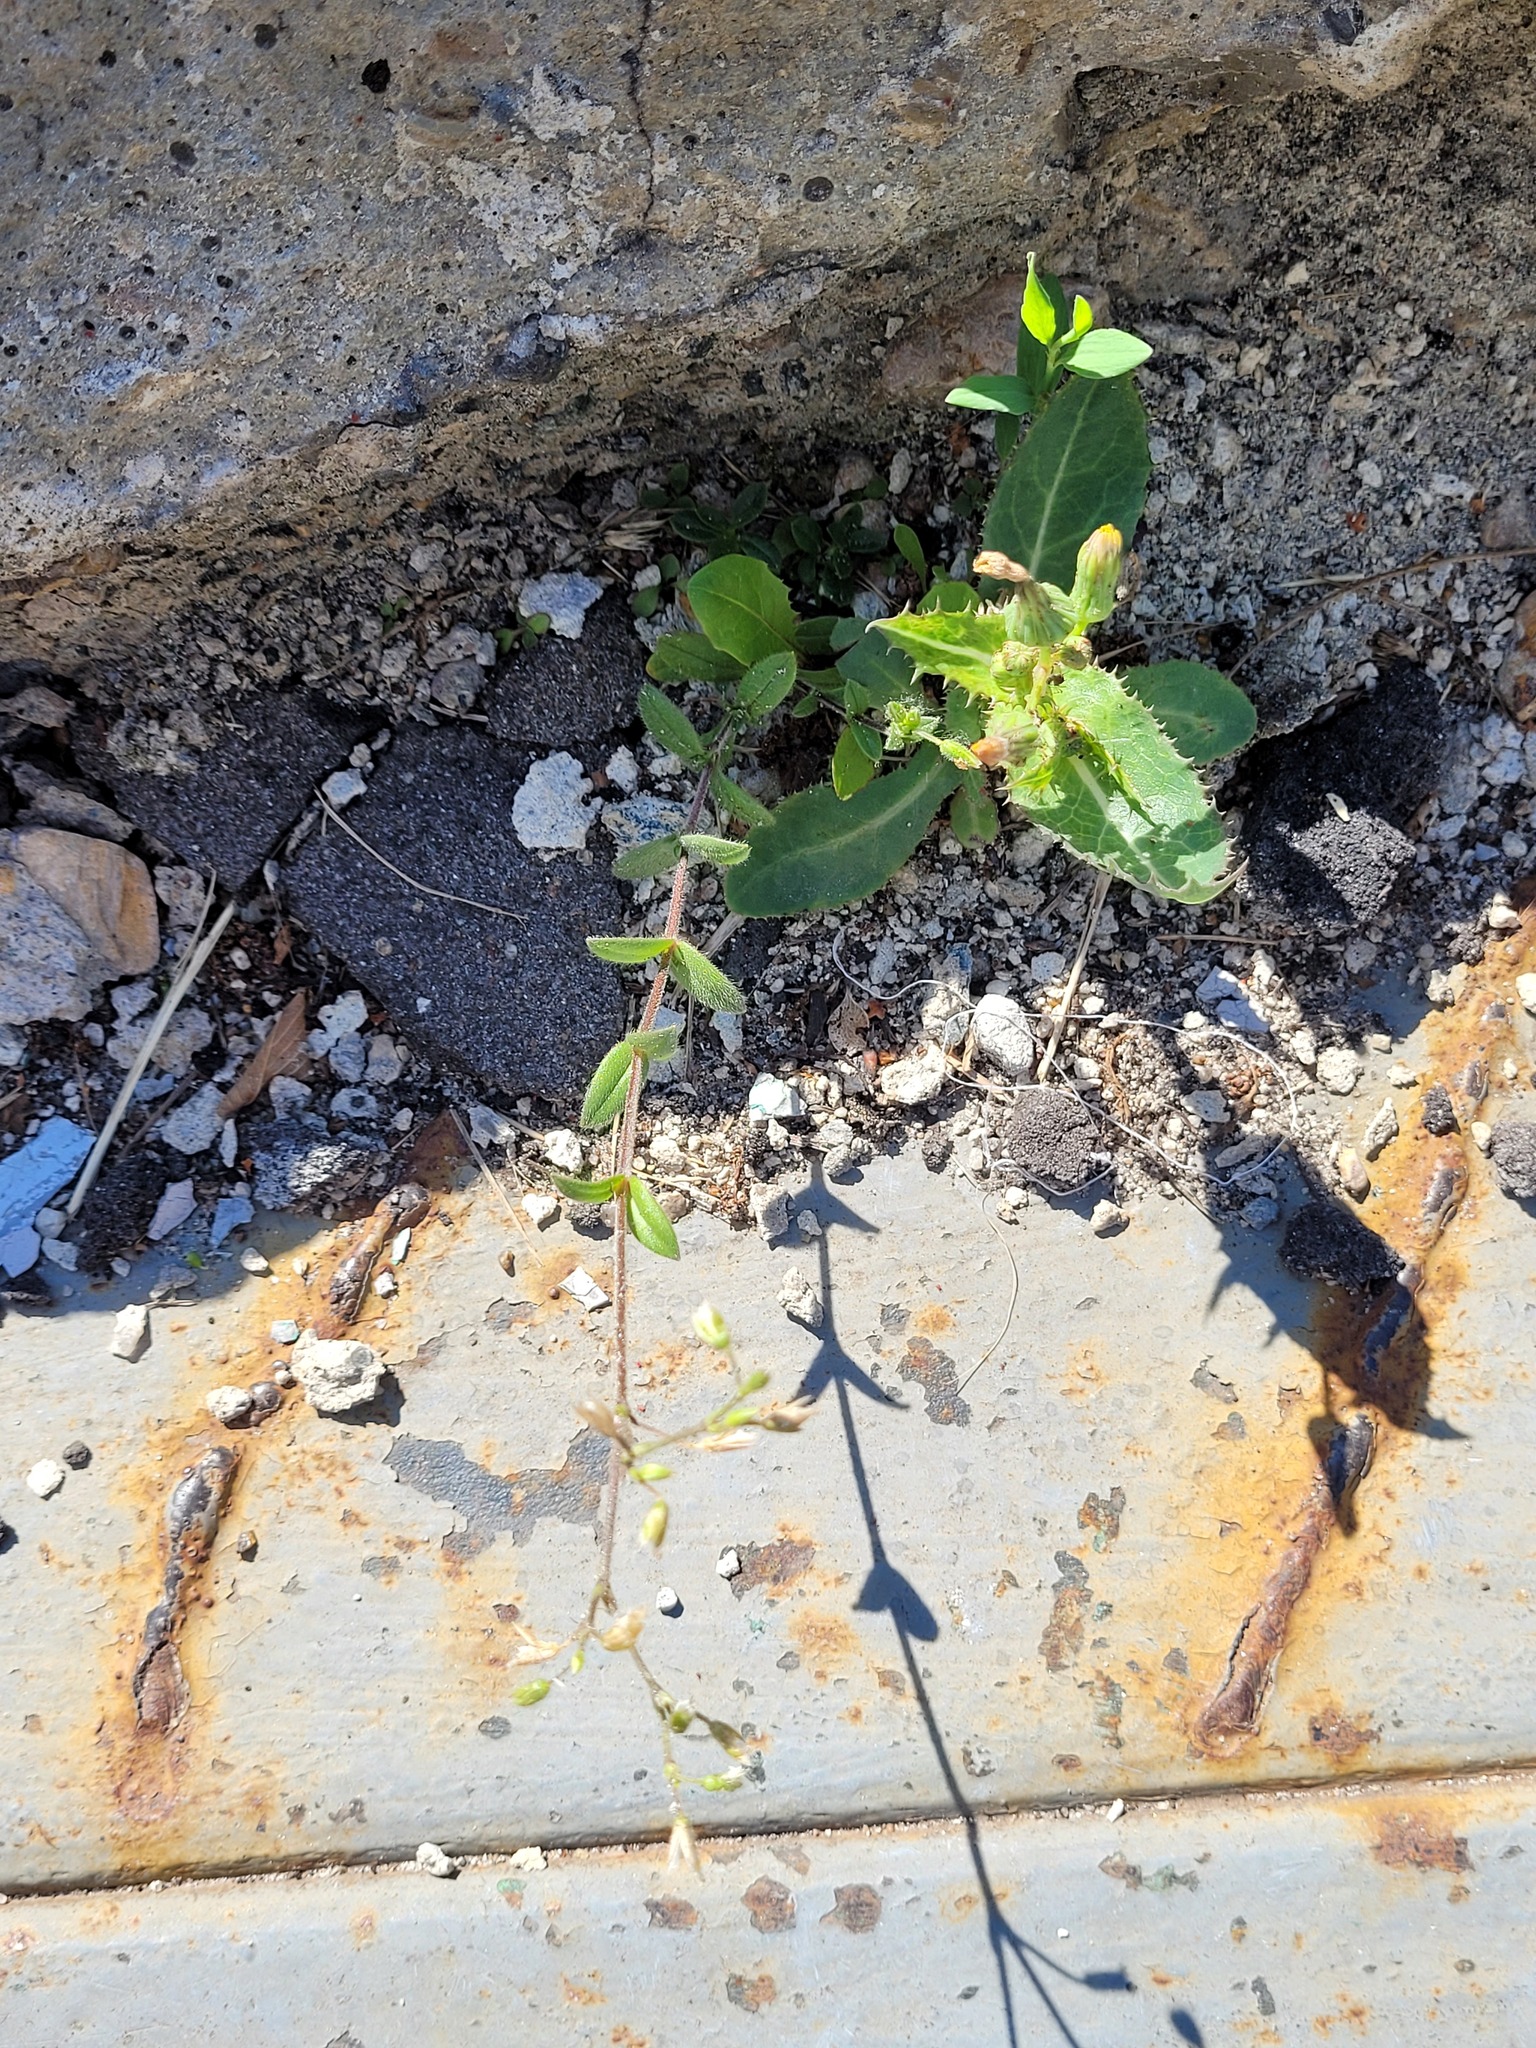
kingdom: Plantae
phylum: Tracheophyta
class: Magnoliopsida
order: Caryophyllales
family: Caryophyllaceae
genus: Cerastium
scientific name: Cerastium holosteoides
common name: Big chickweed
